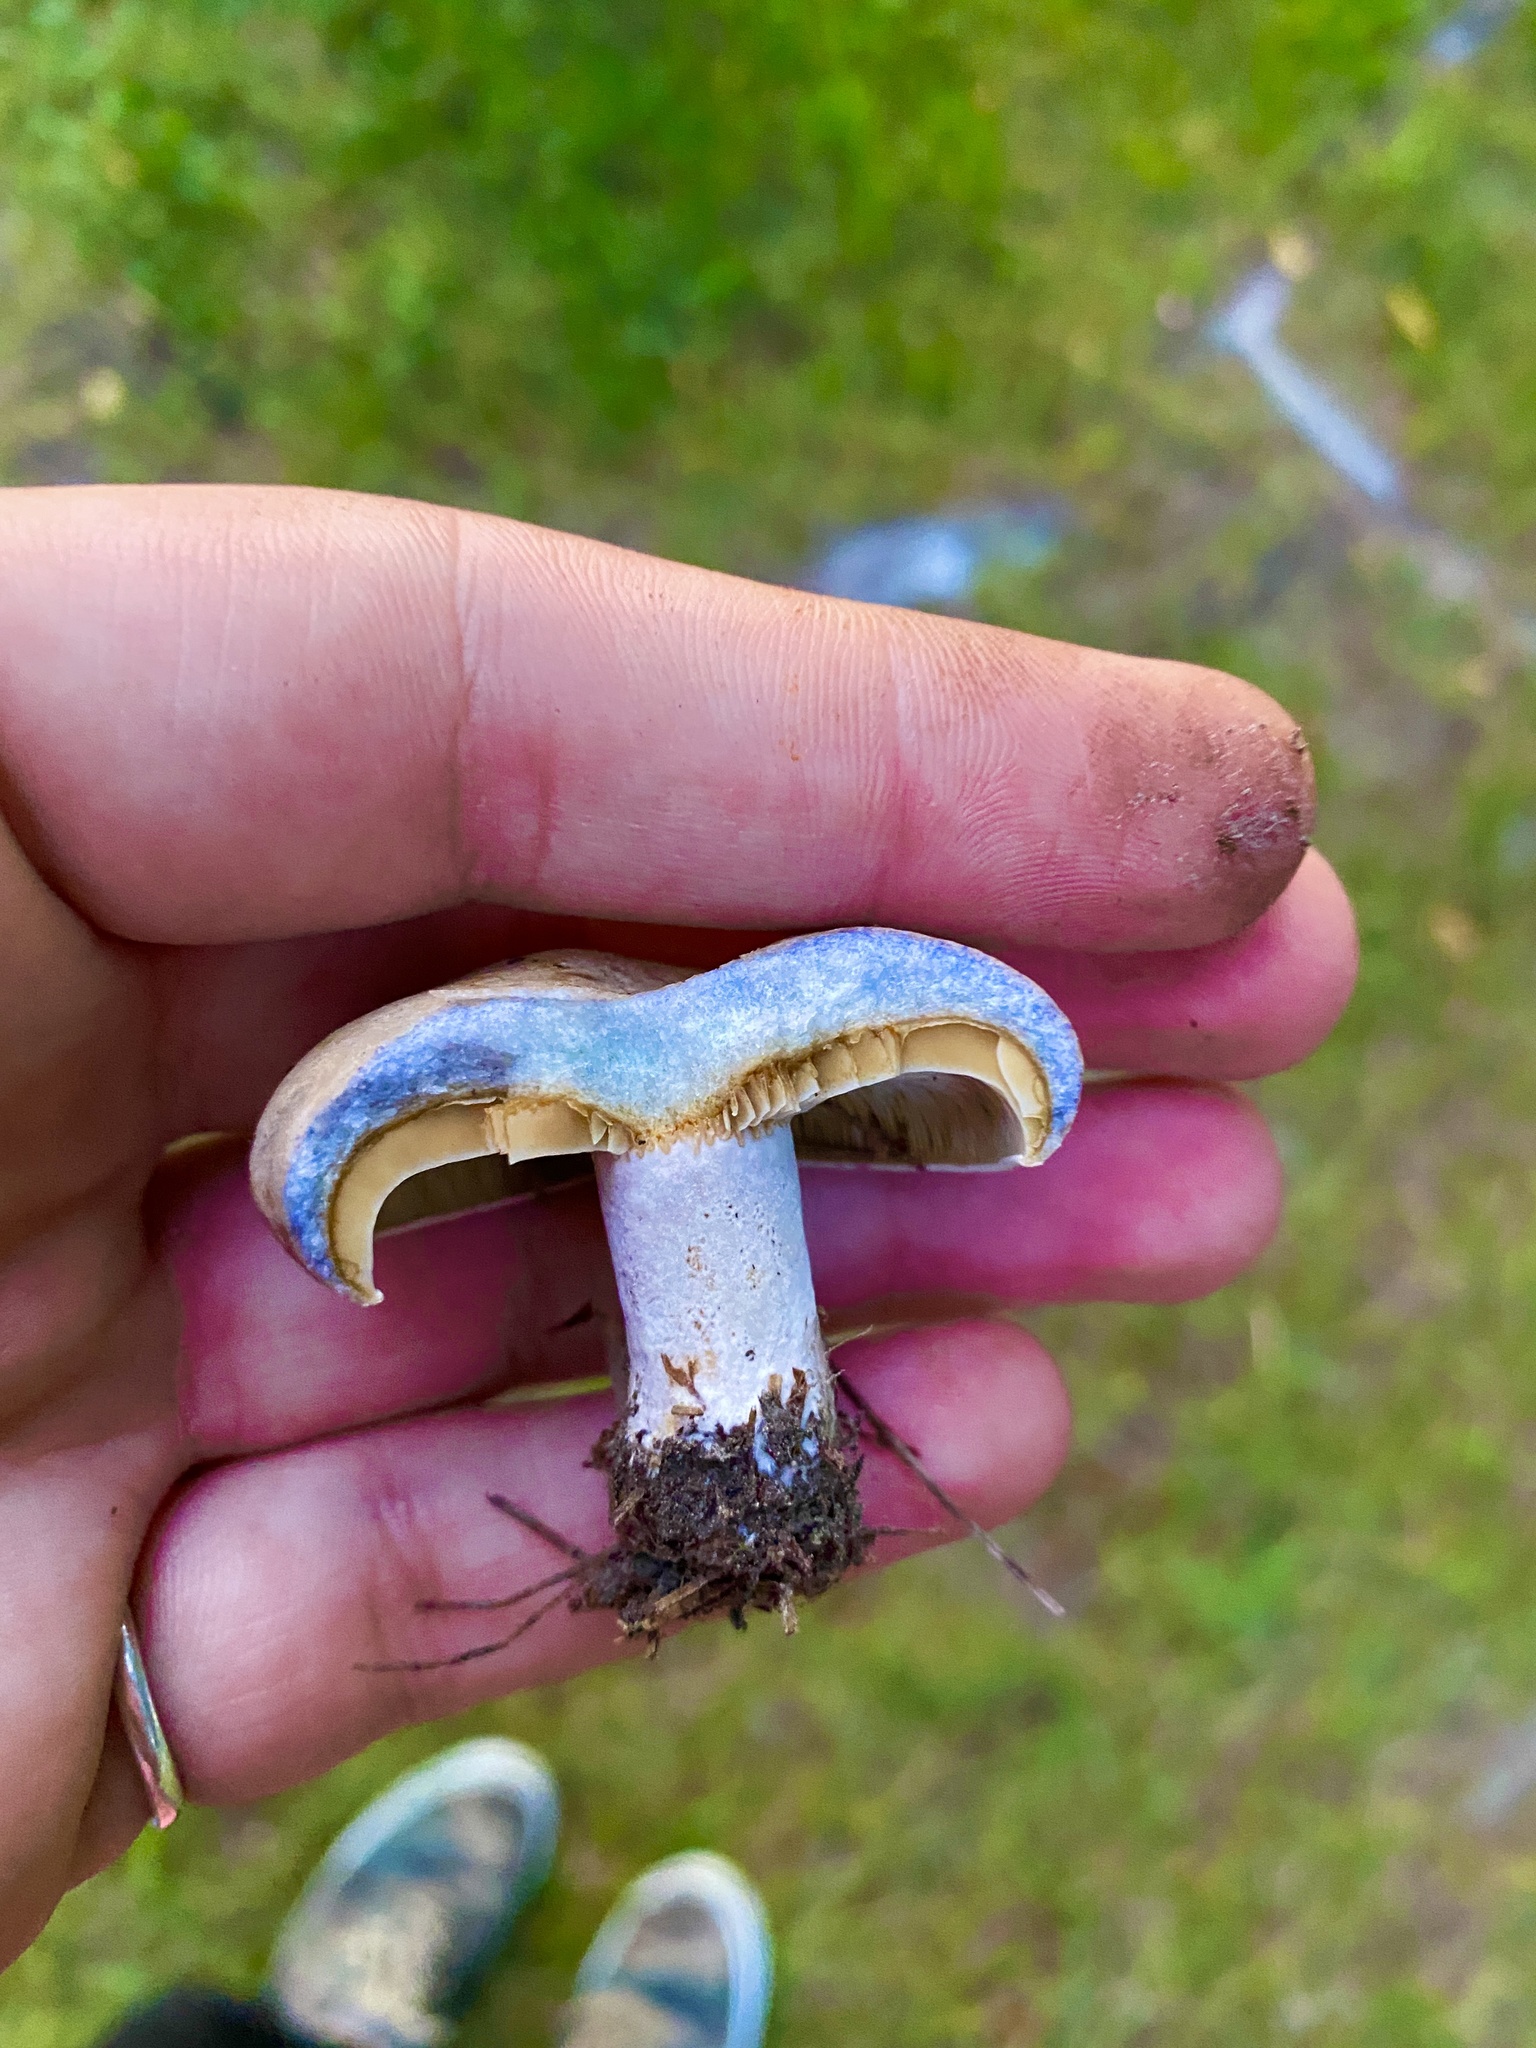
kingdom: Fungi
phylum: Basidiomycota
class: Agaricomycetes
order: Russulales
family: Russulaceae
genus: Lactarius
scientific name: Lactarius indigo
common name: Indigo milk cap
